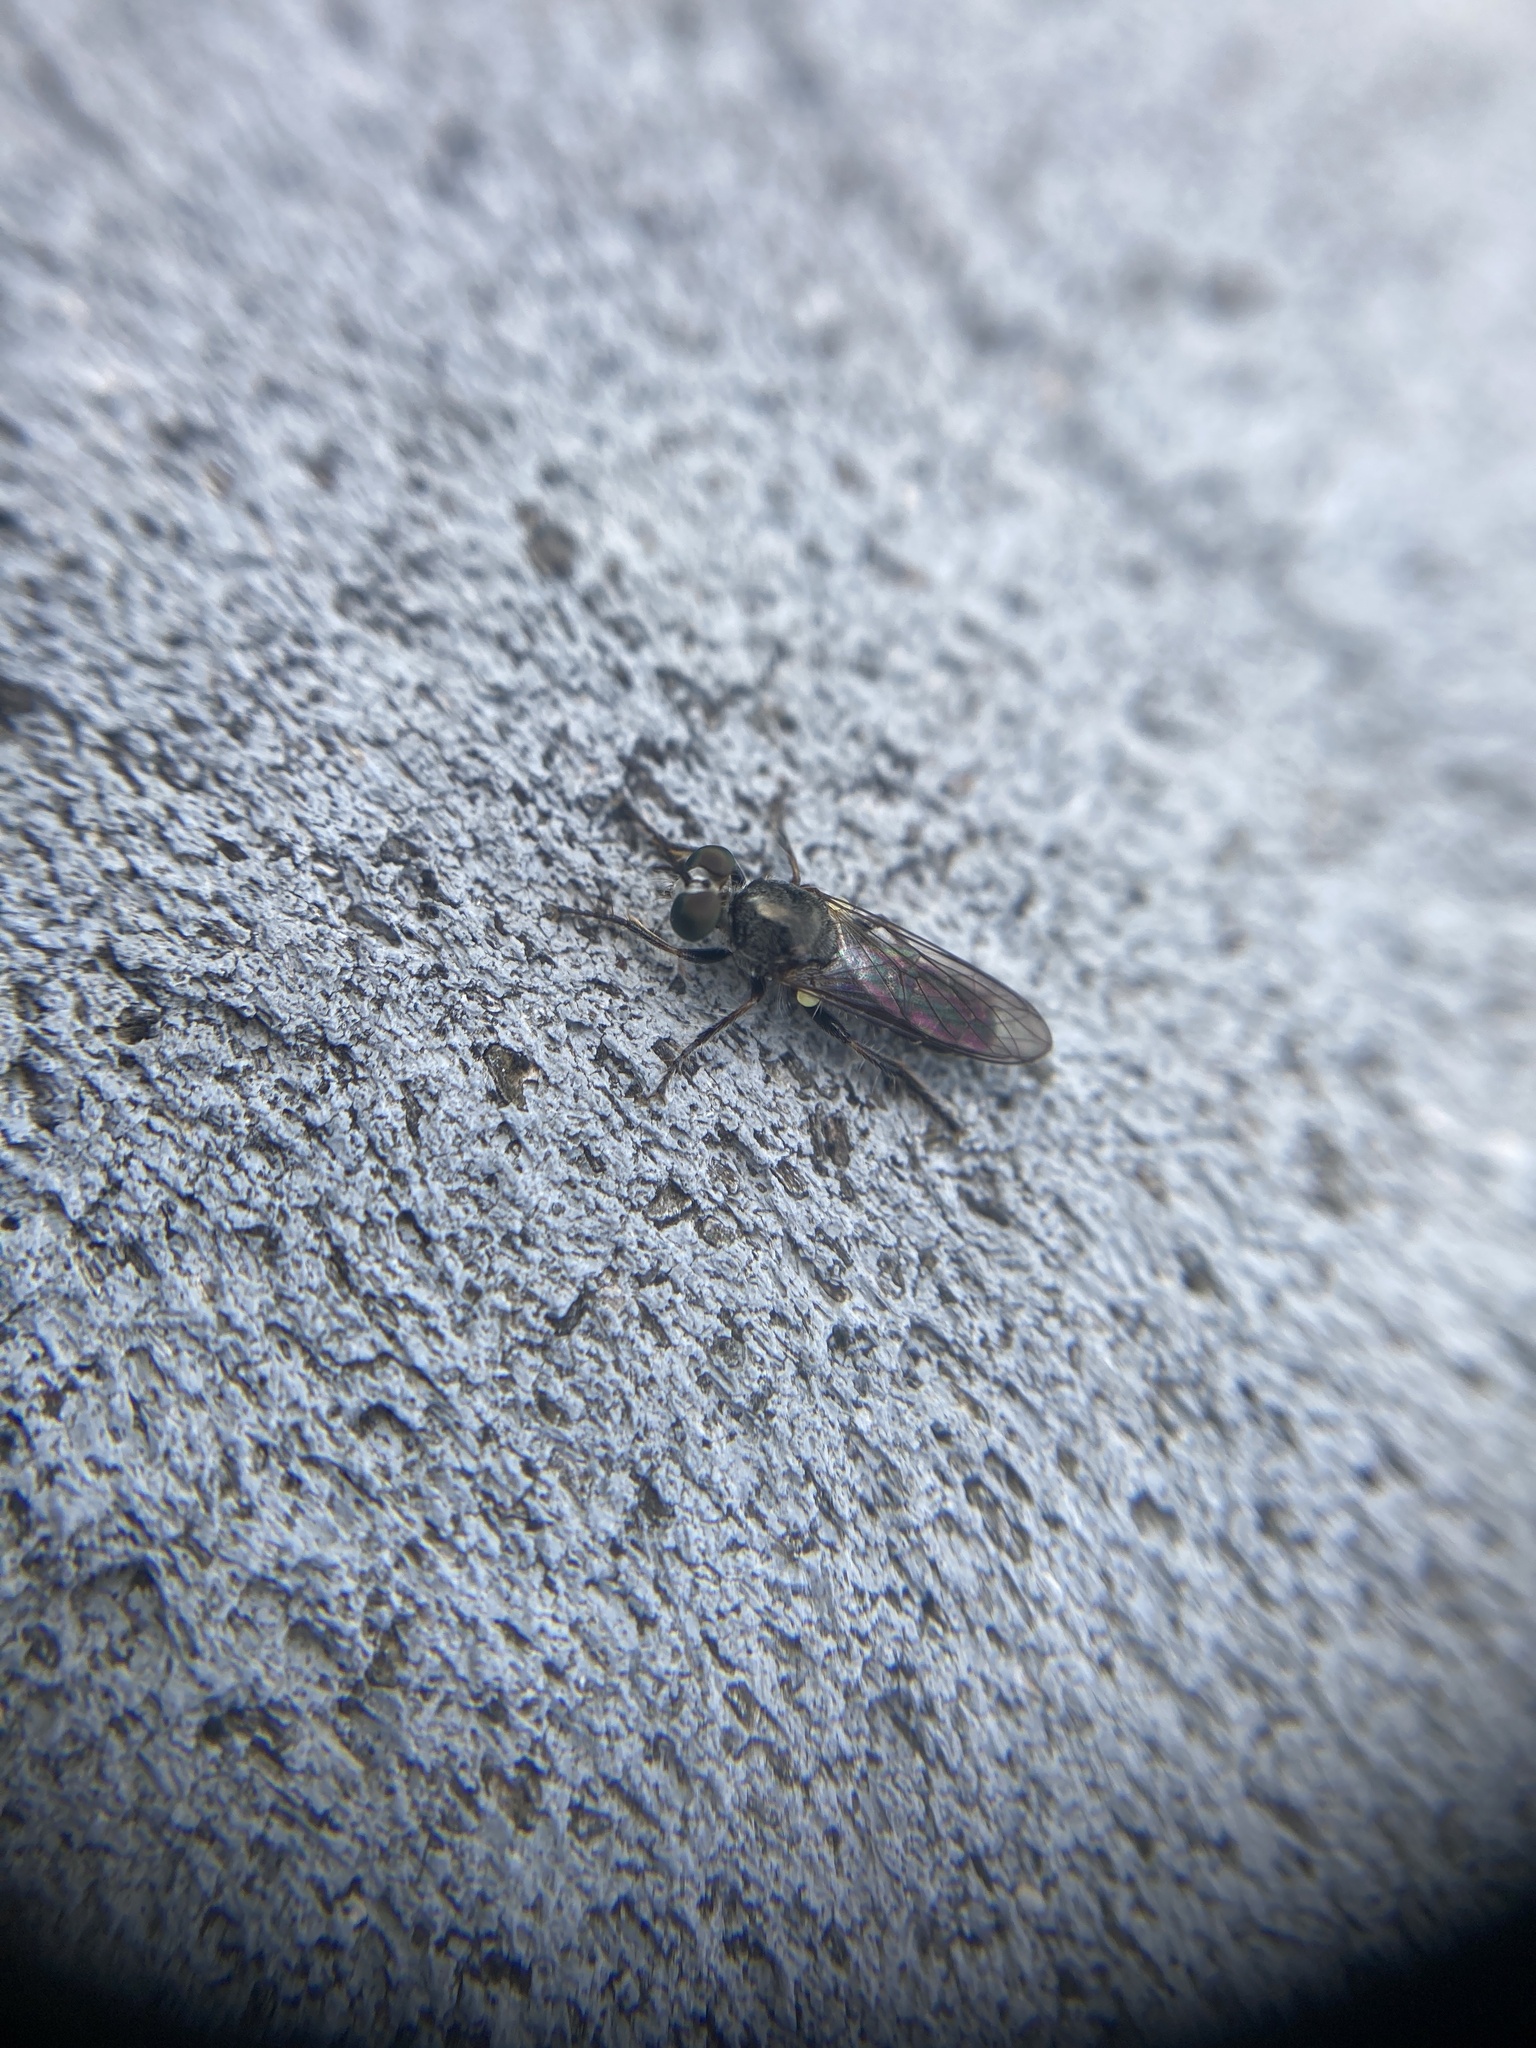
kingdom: Animalia
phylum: Arthropoda
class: Insecta
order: Diptera
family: Asilidae
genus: Atomosia
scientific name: Atomosia puella
